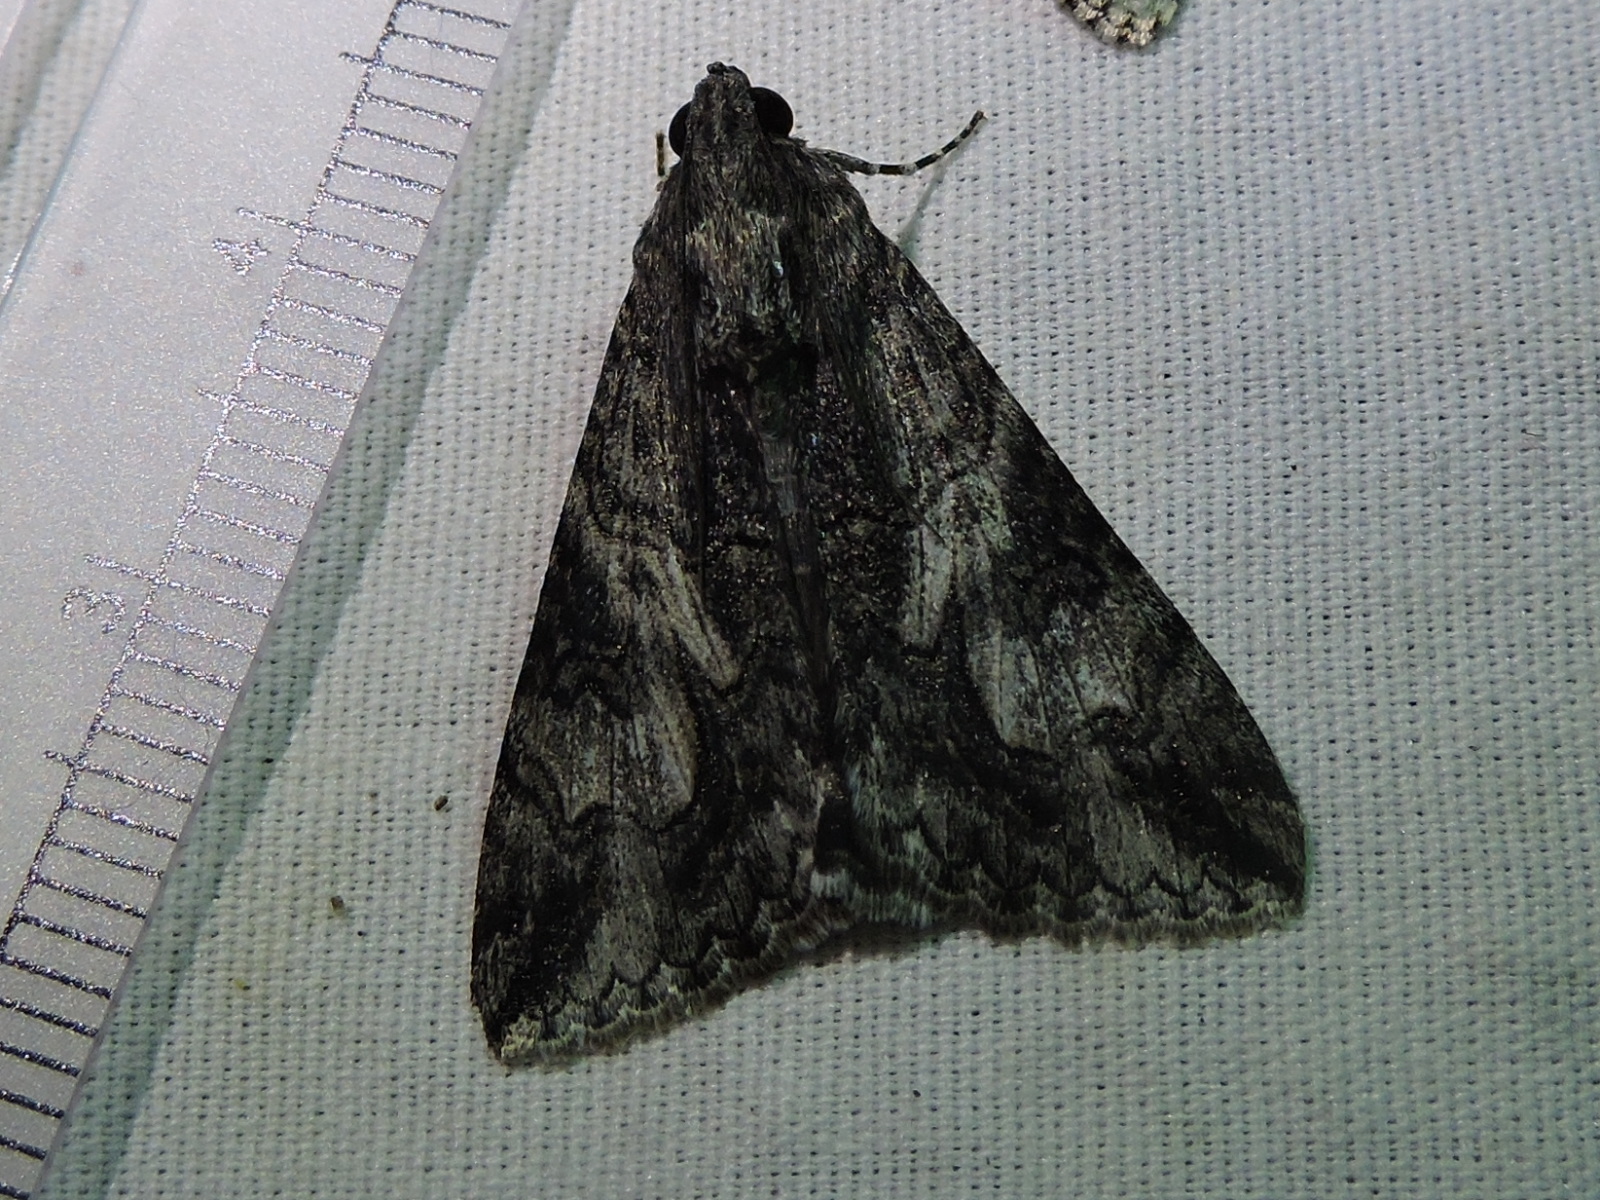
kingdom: Animalia
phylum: Arthropoda
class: Insecta
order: Lepidoptera
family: Erebidae
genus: Melipotis
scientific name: Melipotis jucunda
